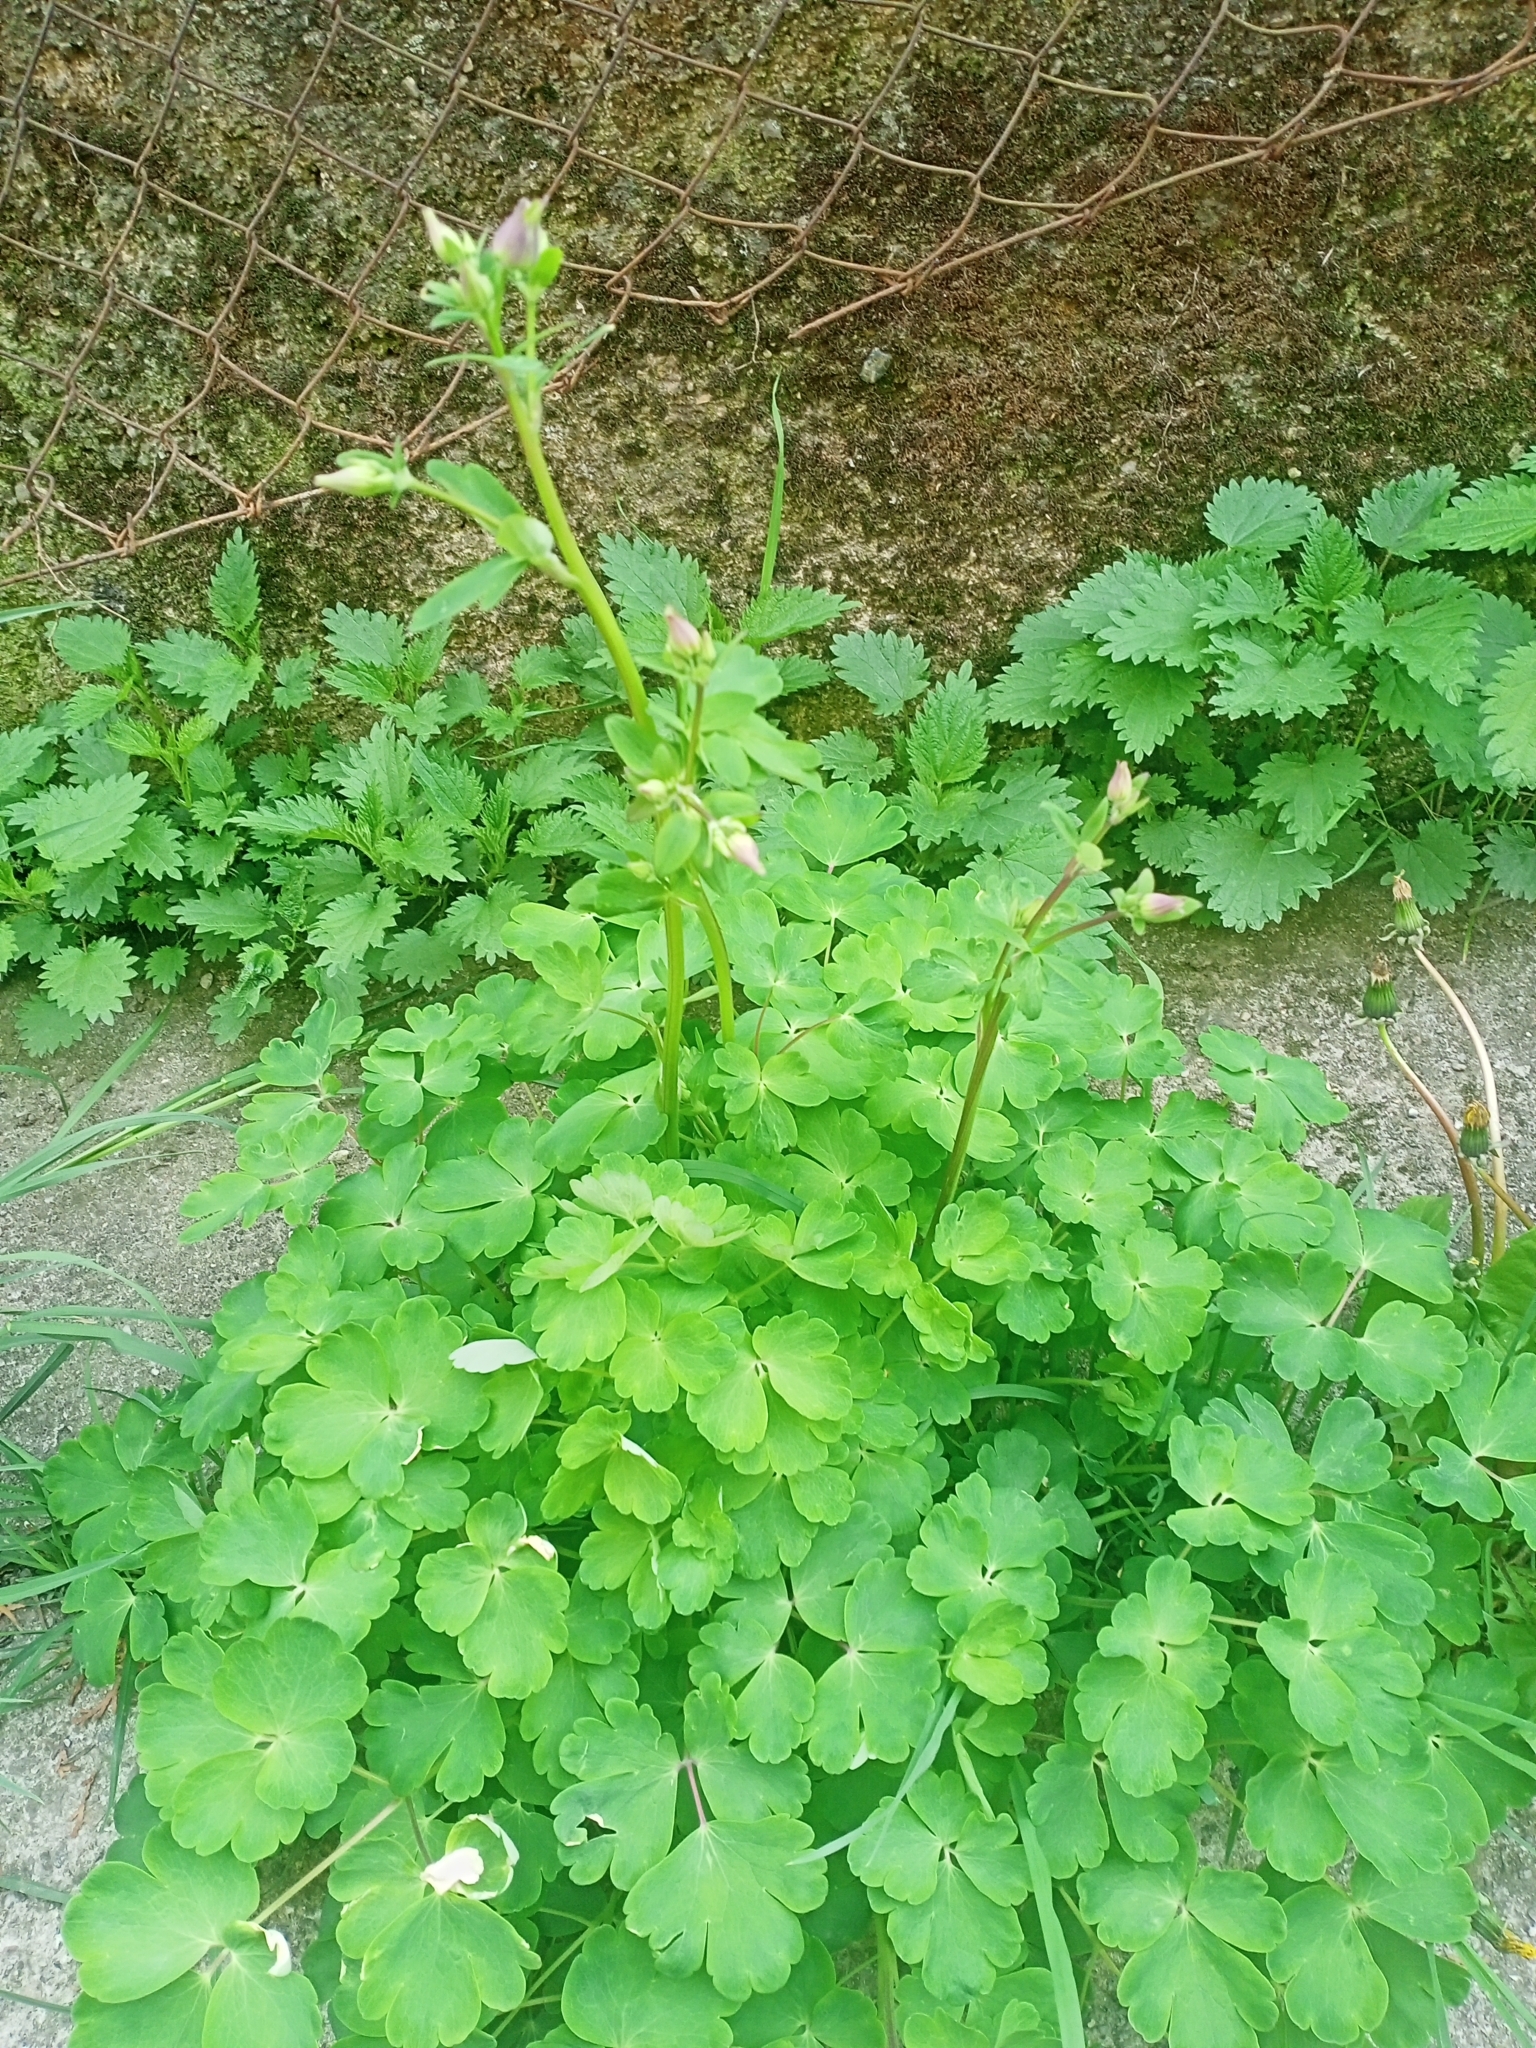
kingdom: Plantae
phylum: Tracheophyta
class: Magnoliopsida
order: Ranunculales
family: Ranunculaceae
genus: Aquilegia
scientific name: Aquilegia vulgaris
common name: Columbine
